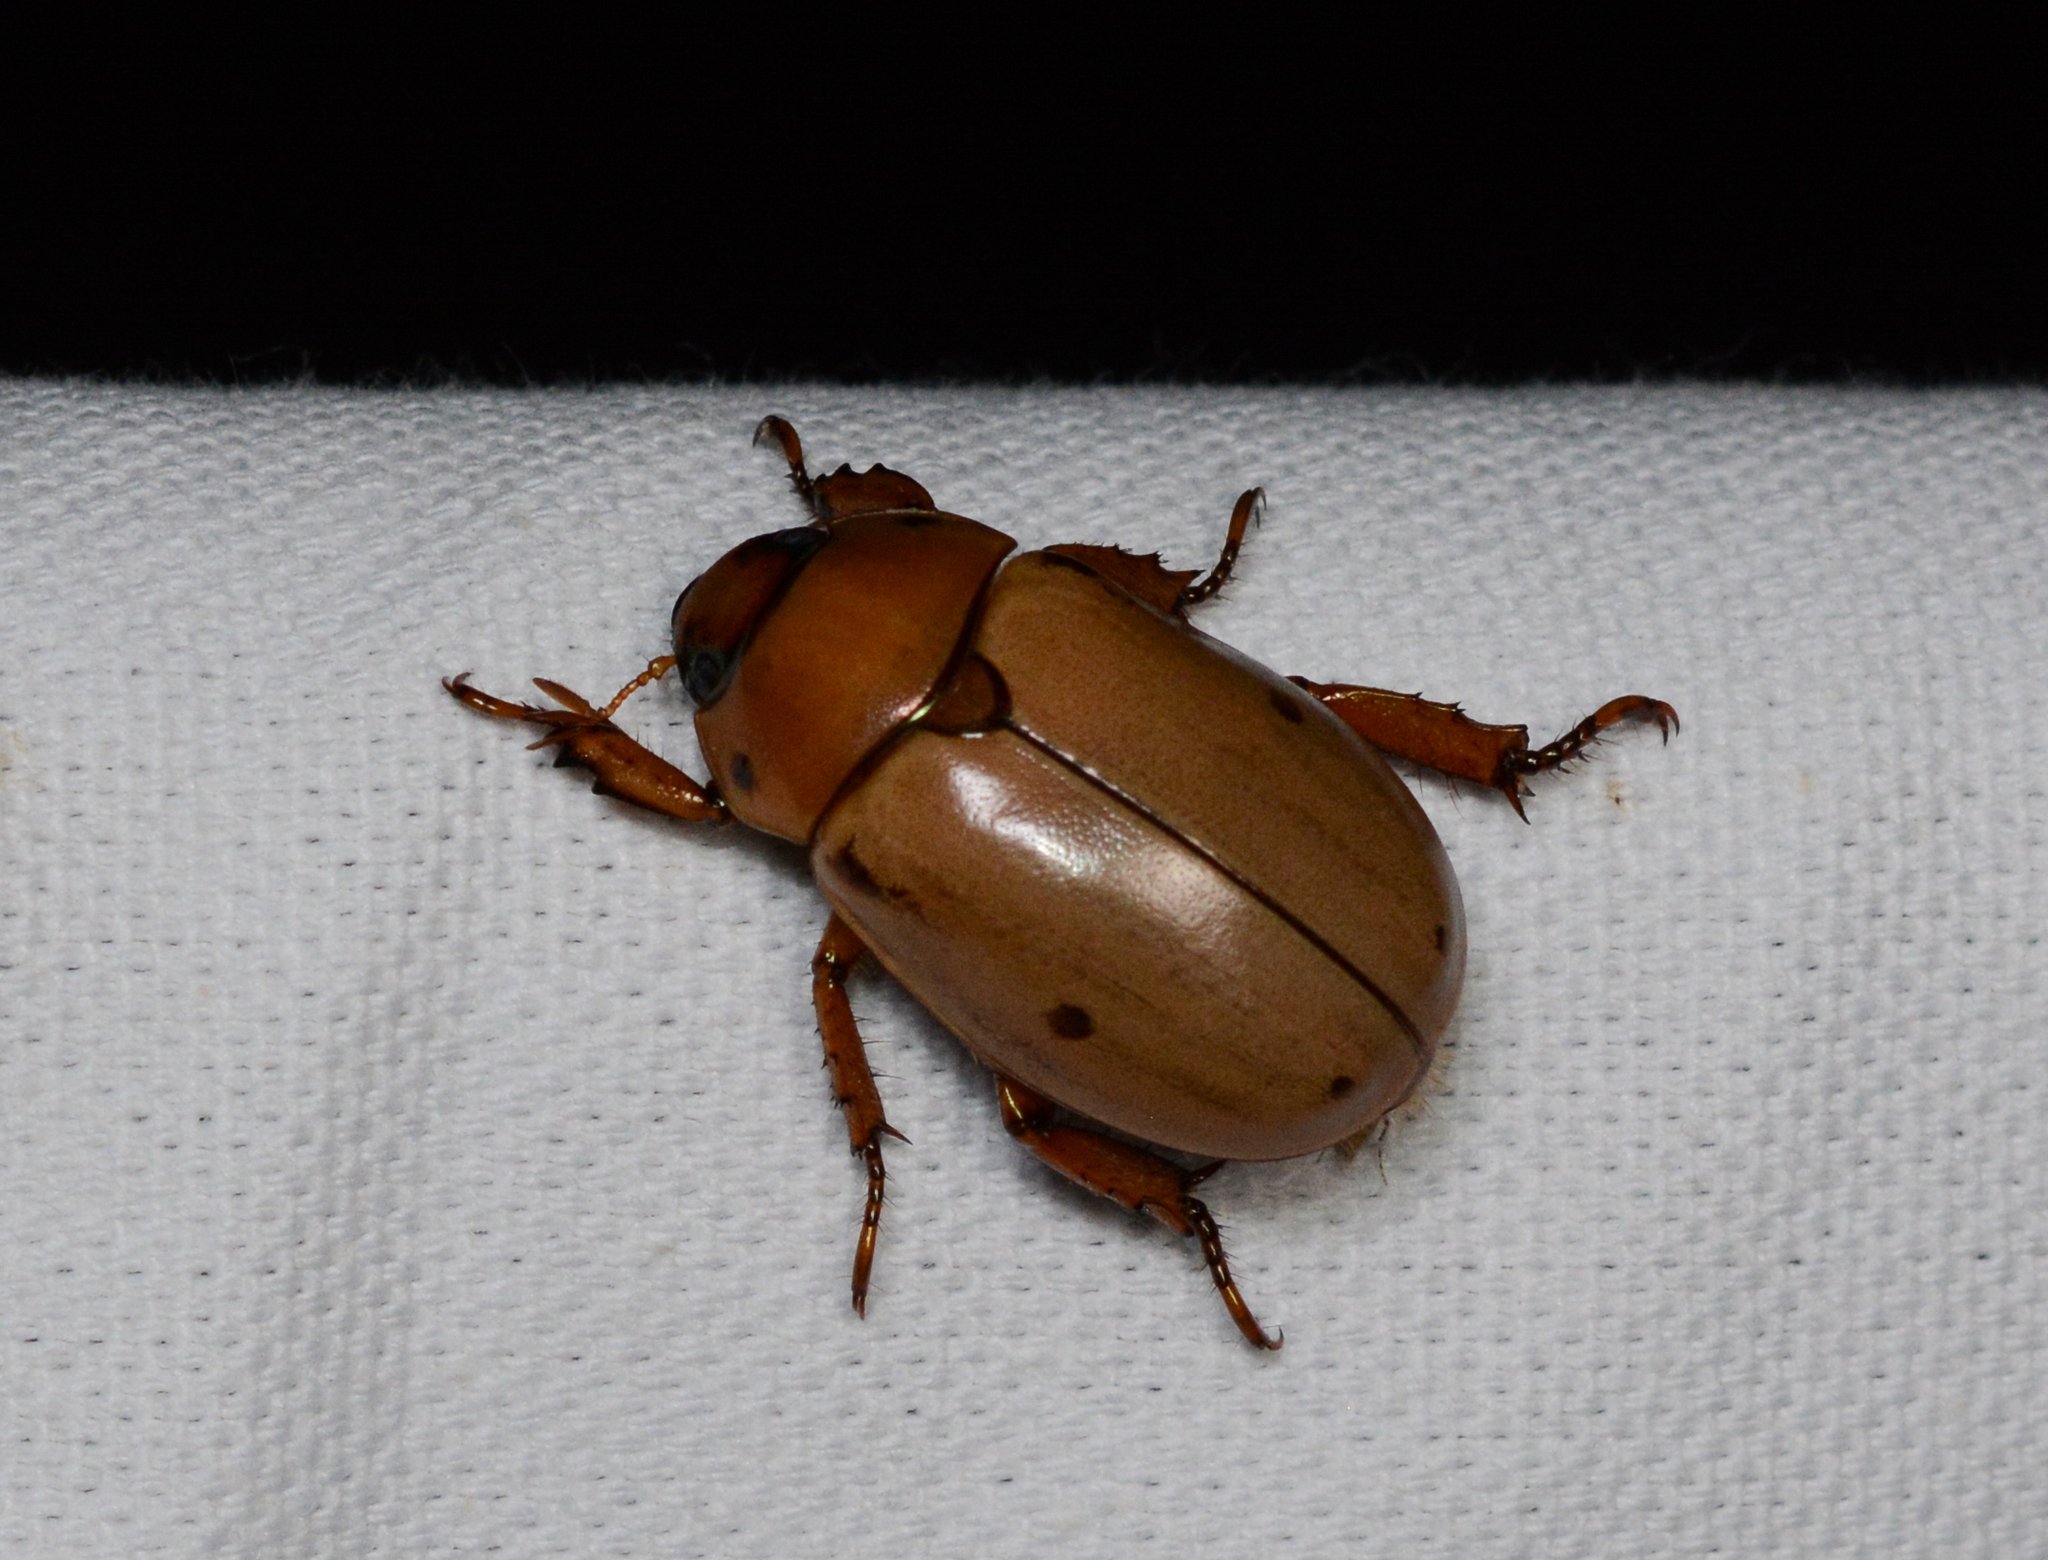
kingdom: Animalia
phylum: Arthropoda
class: Insecta
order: Coleoptera
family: Scarabaeidae
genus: Pelidnota
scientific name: Pelidnota punctata
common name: Grapevine beetle
